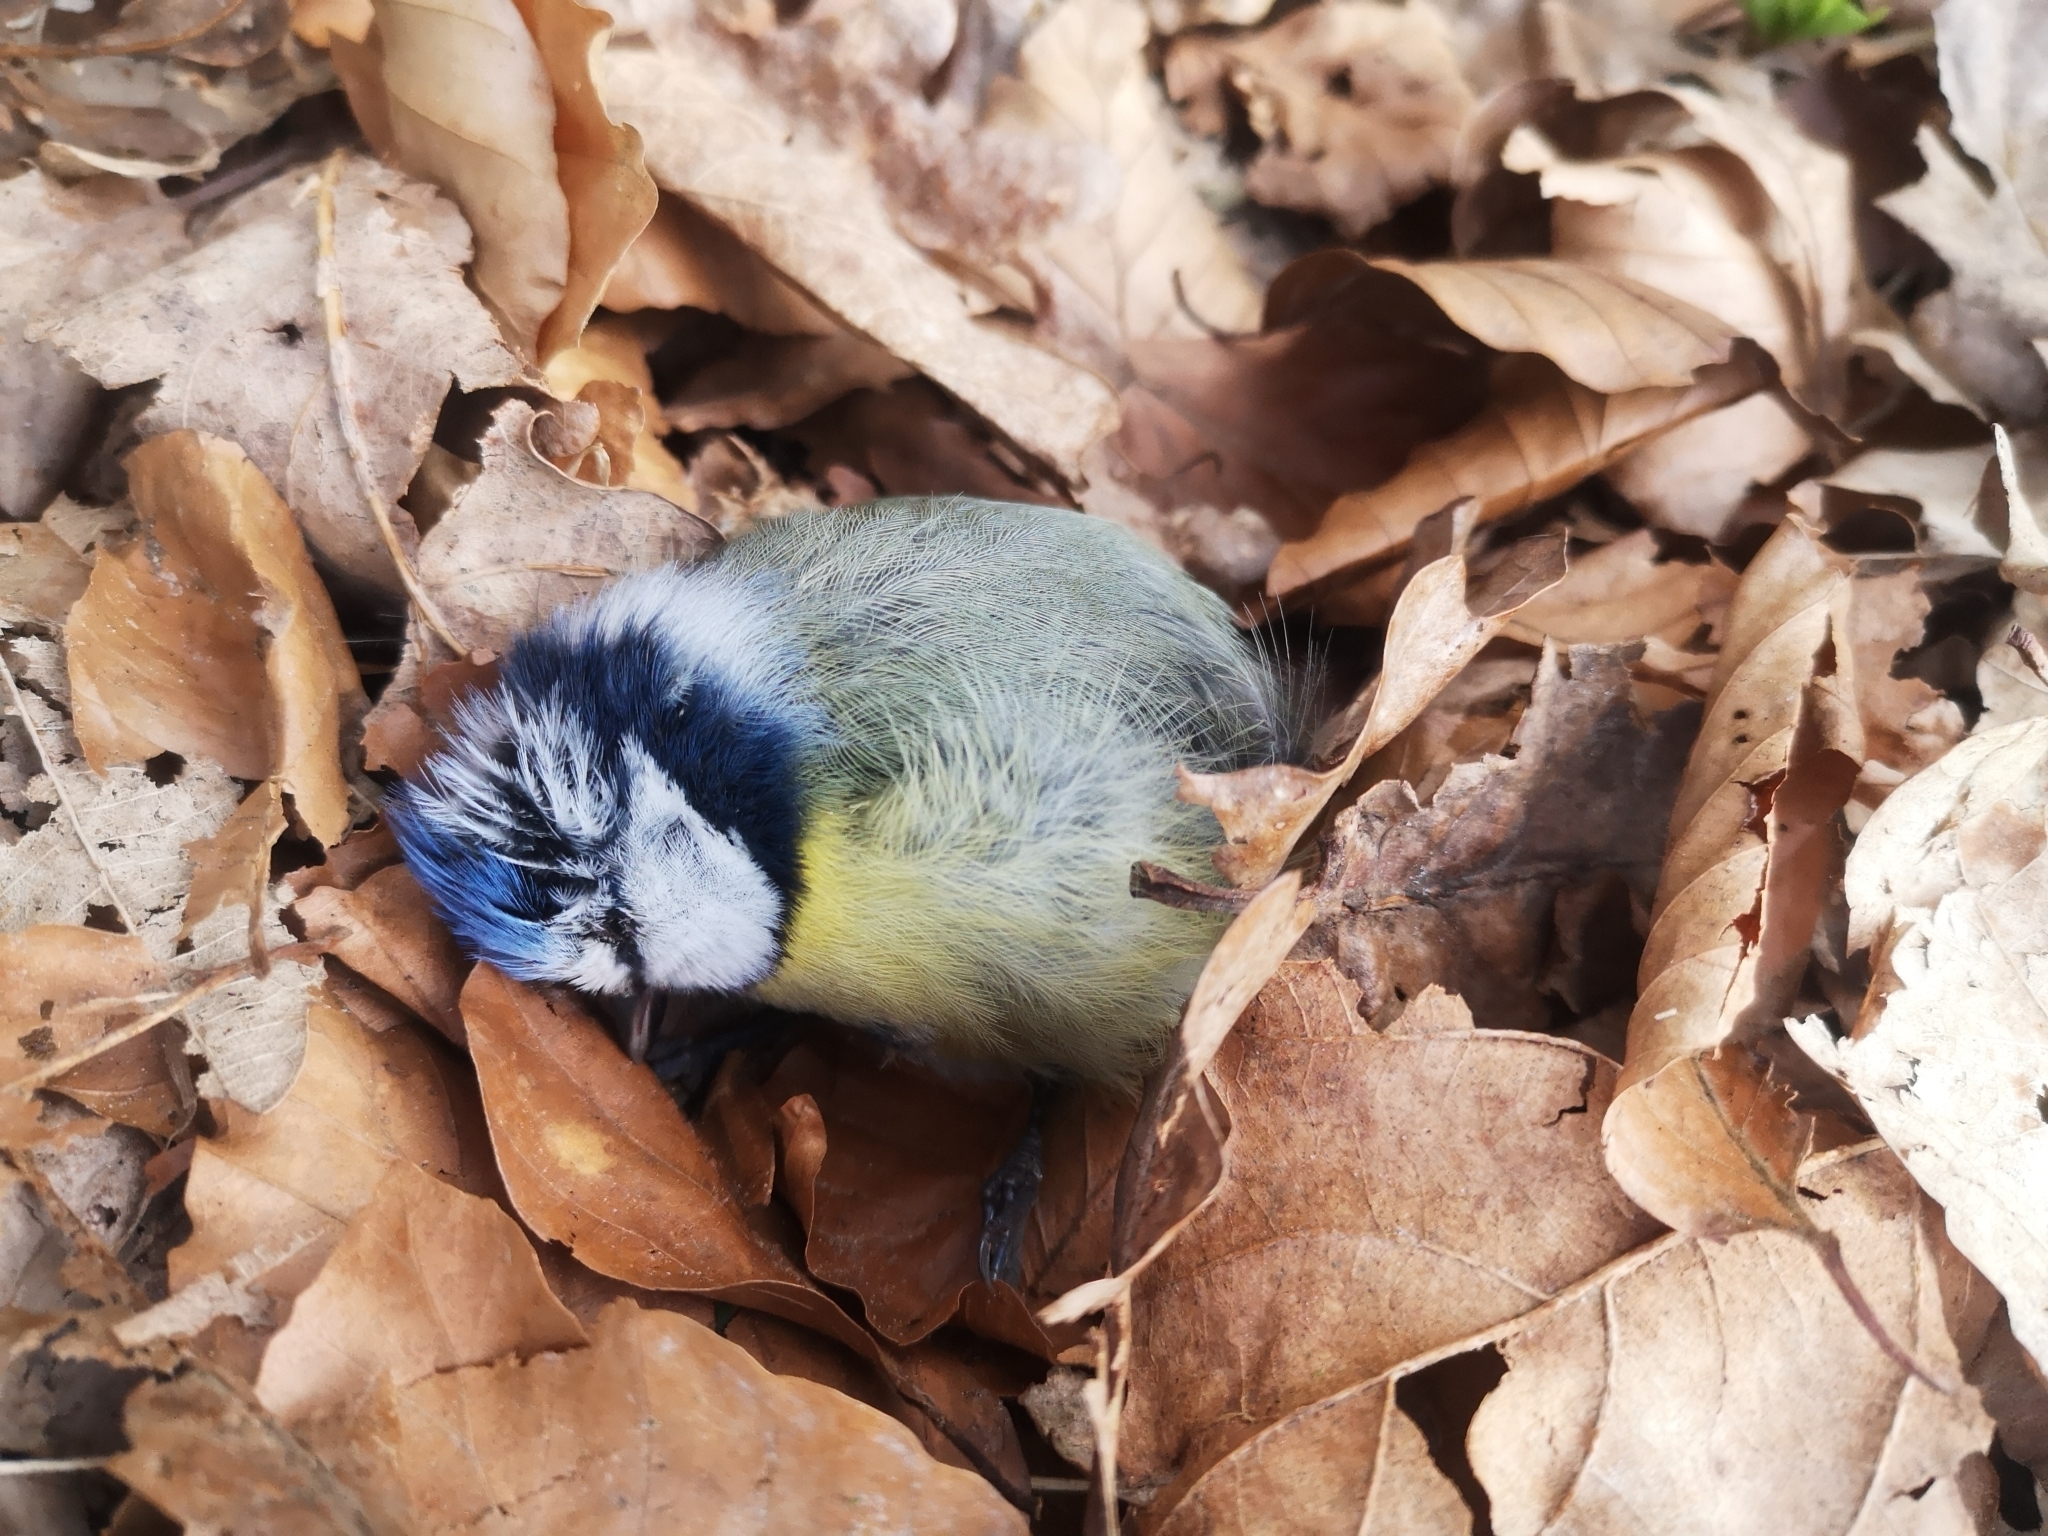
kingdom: Animalia
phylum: Chordata
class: Aves
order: Passeriformes
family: Paridae
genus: Cyanistes
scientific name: Cyanistes caeruleus
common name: Eurasian blue tit
